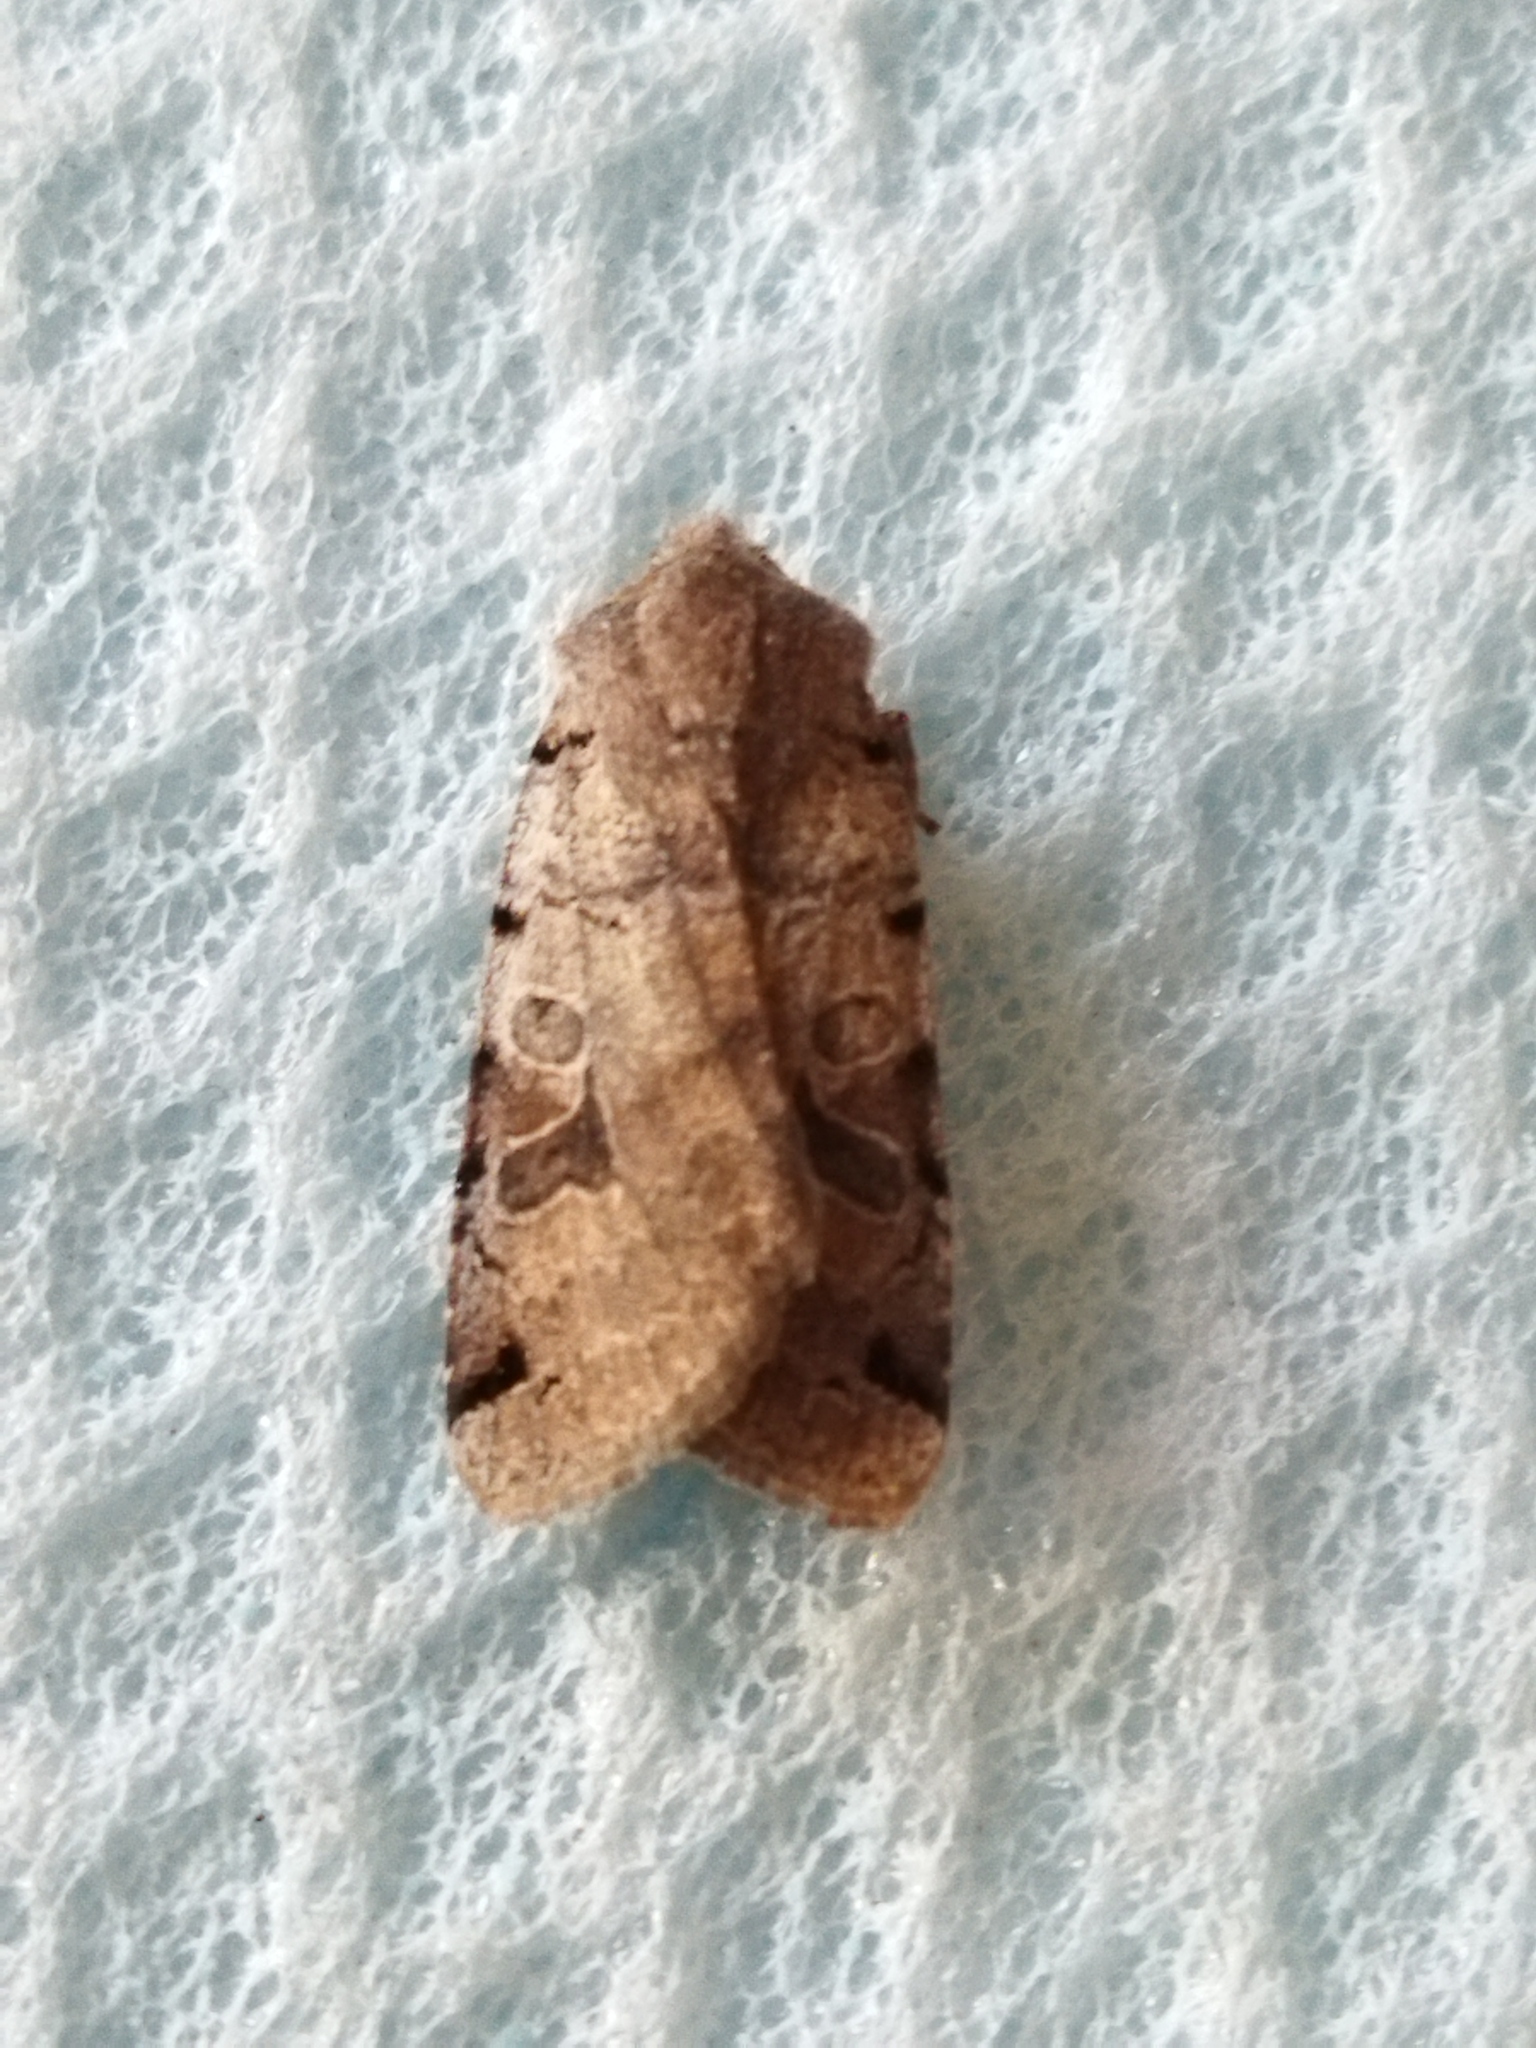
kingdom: Animalia
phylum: Arthropoda
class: Insecta
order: Lepidoptera
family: Noctuidae
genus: Agrochola
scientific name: Agrochola litura
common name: Brown-spot pinion
